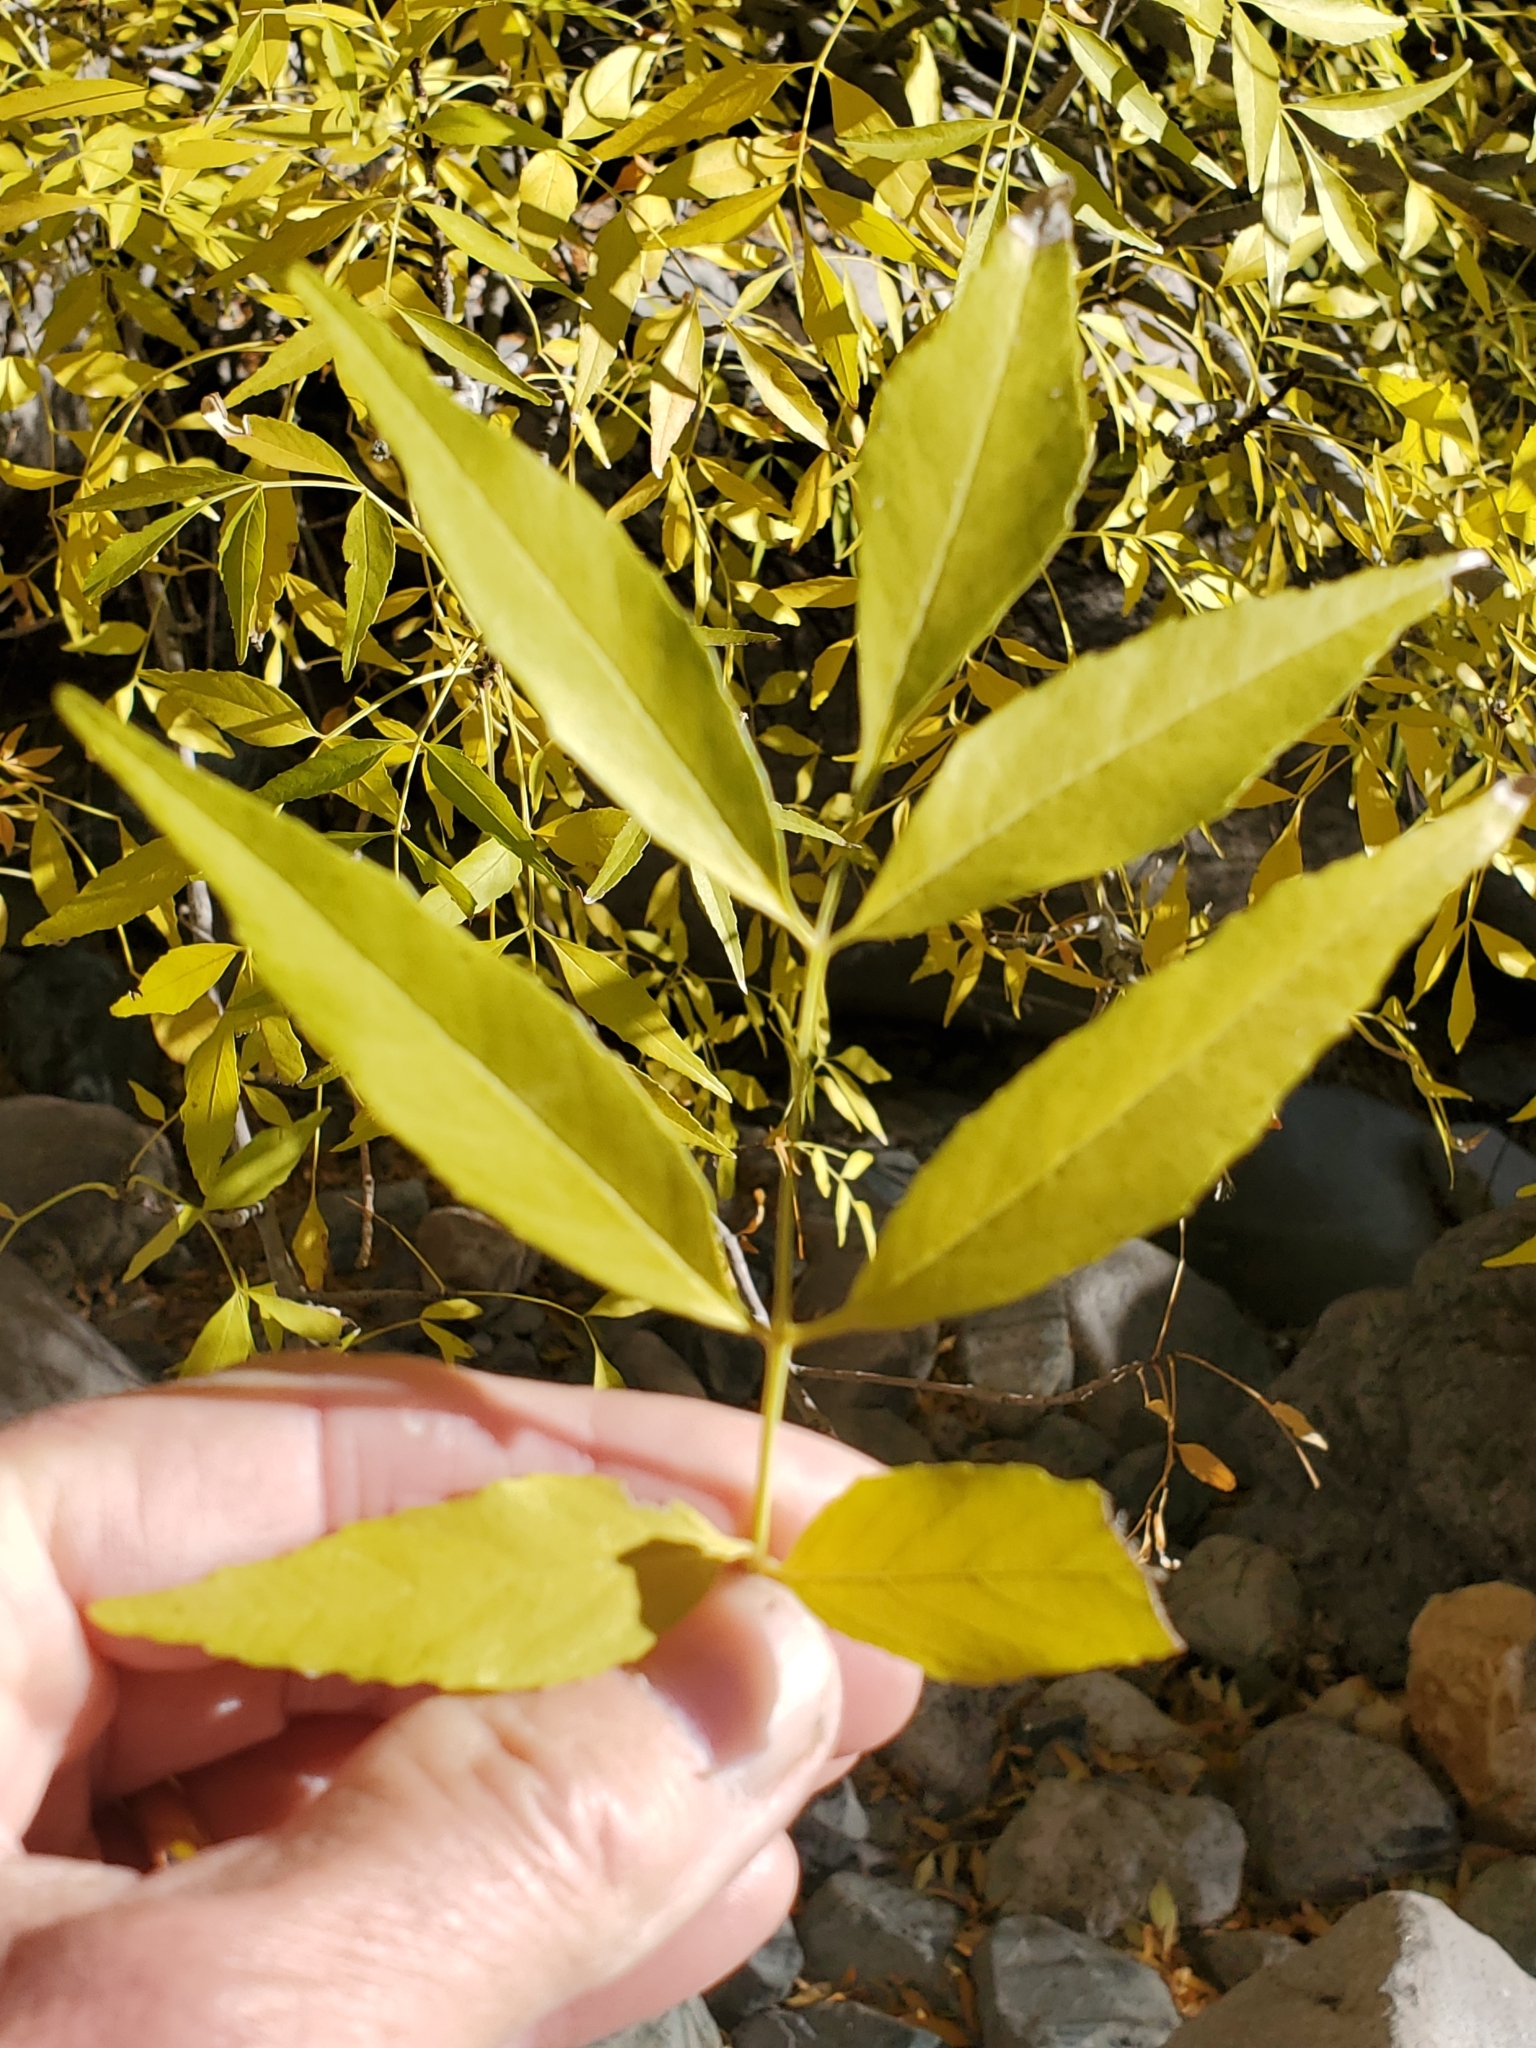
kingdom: Plantae
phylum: Tracheophyta
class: Magnoliopsida
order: Lamiales
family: Oleaceae
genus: Fraxinus
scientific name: Fraxinus velutina
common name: Arizon ash
